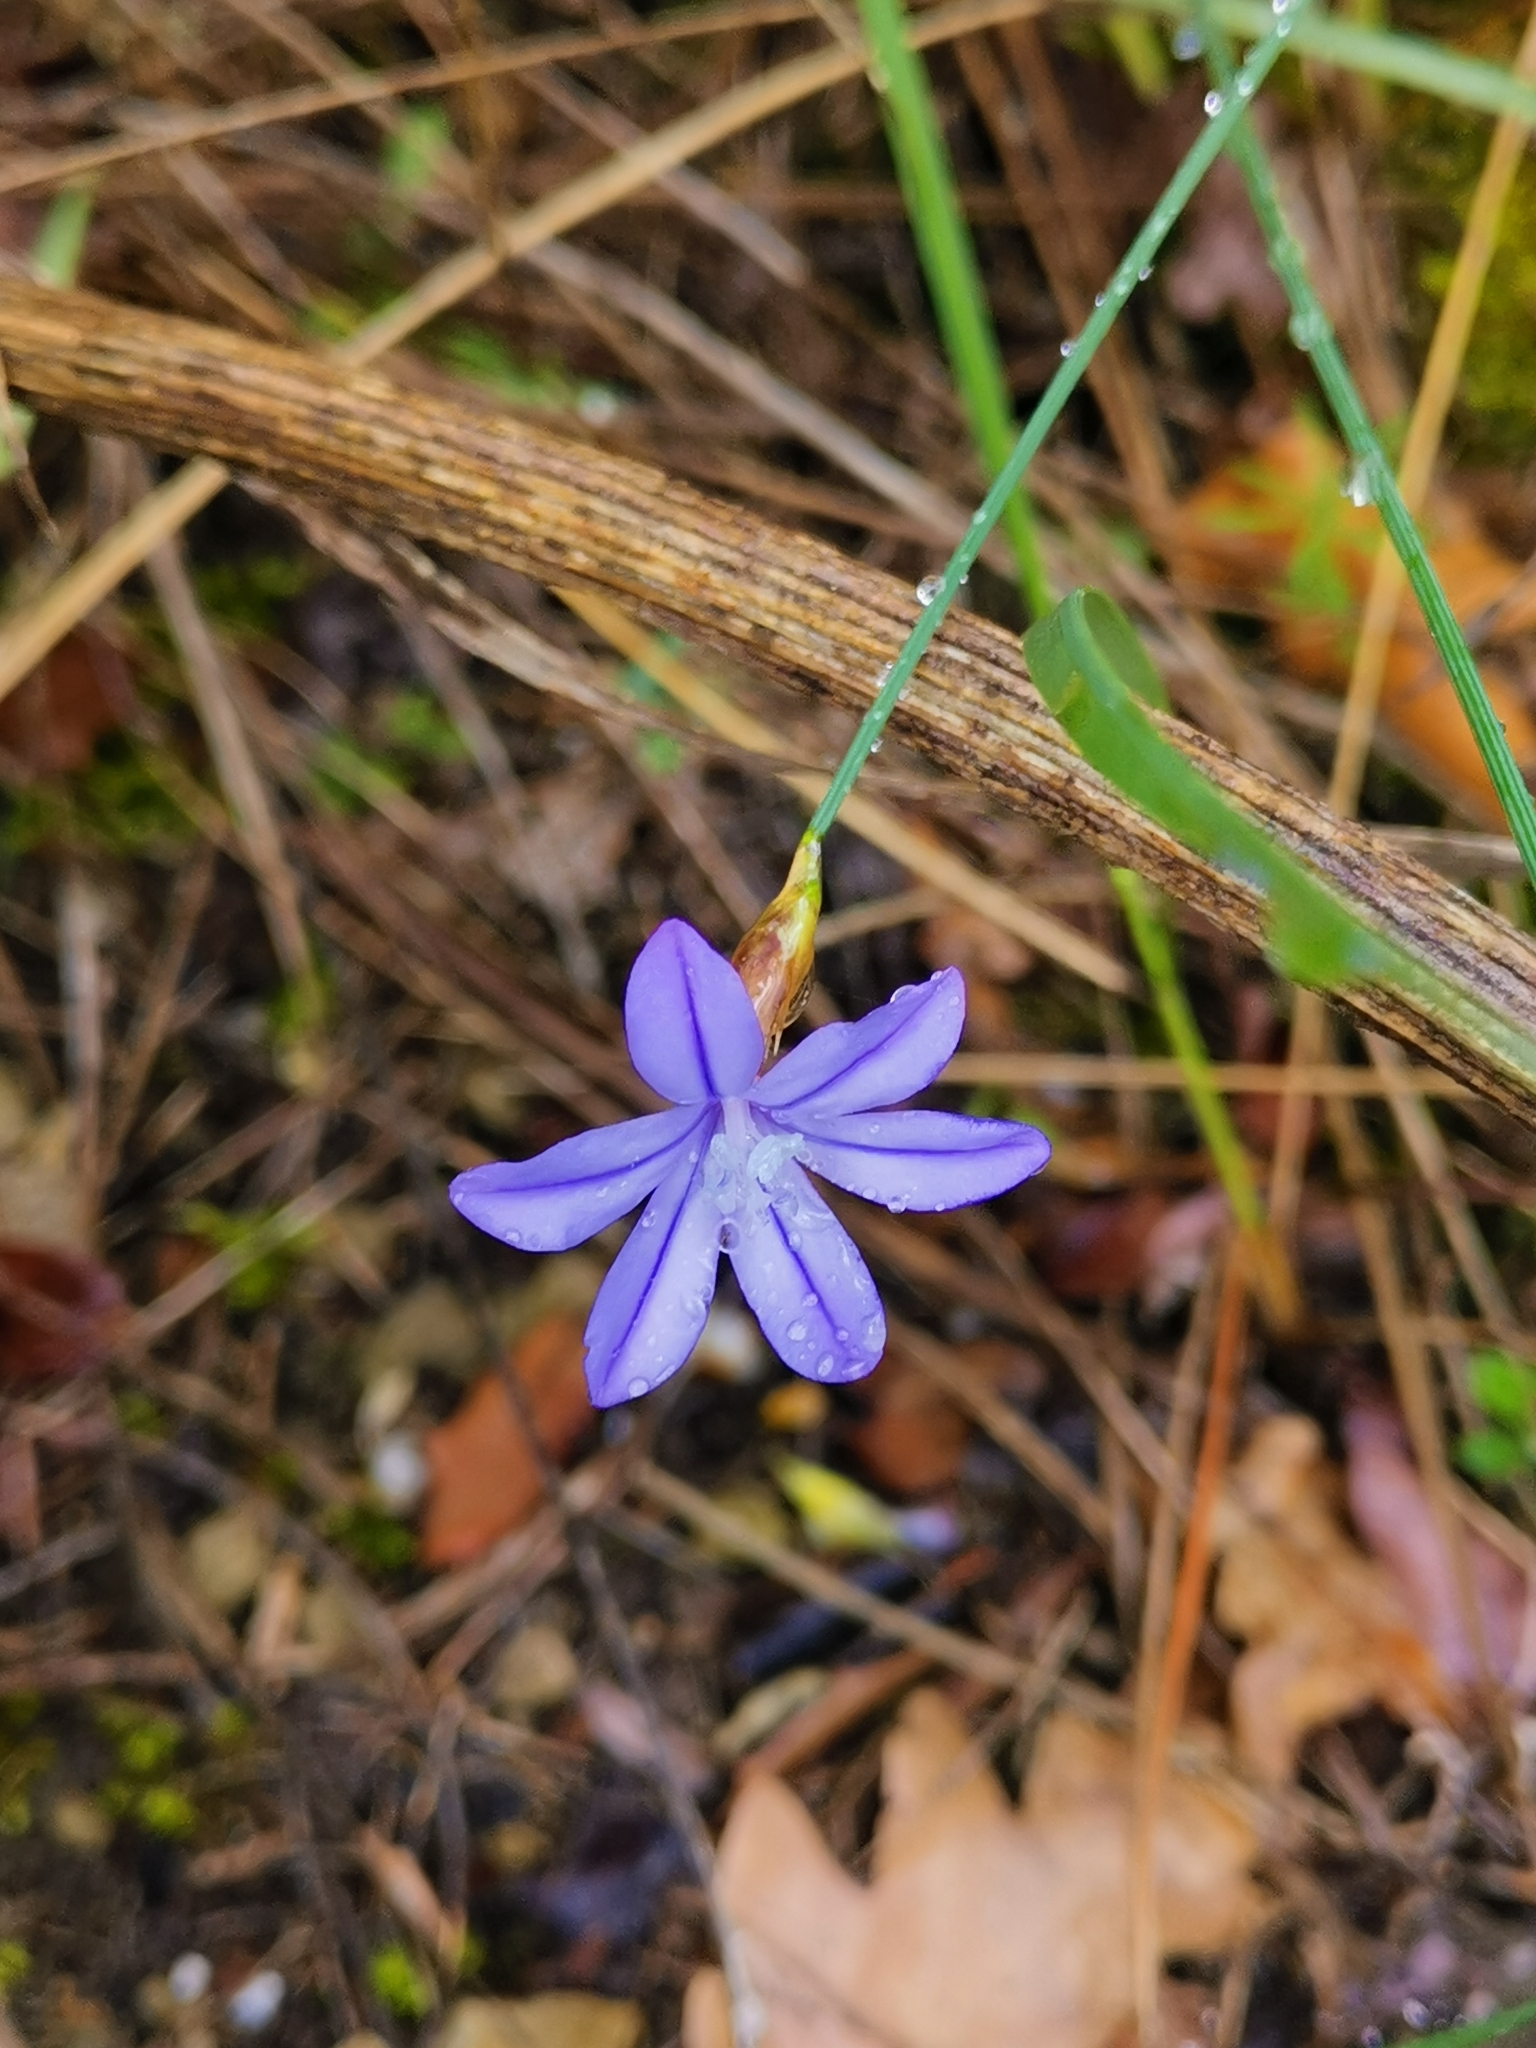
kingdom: Plantae
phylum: Tracheophyta
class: Liliopsida
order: Asparagales
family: Asparagaceae
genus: Aphyllanthes
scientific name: Aphyllanthes monspeliensis
